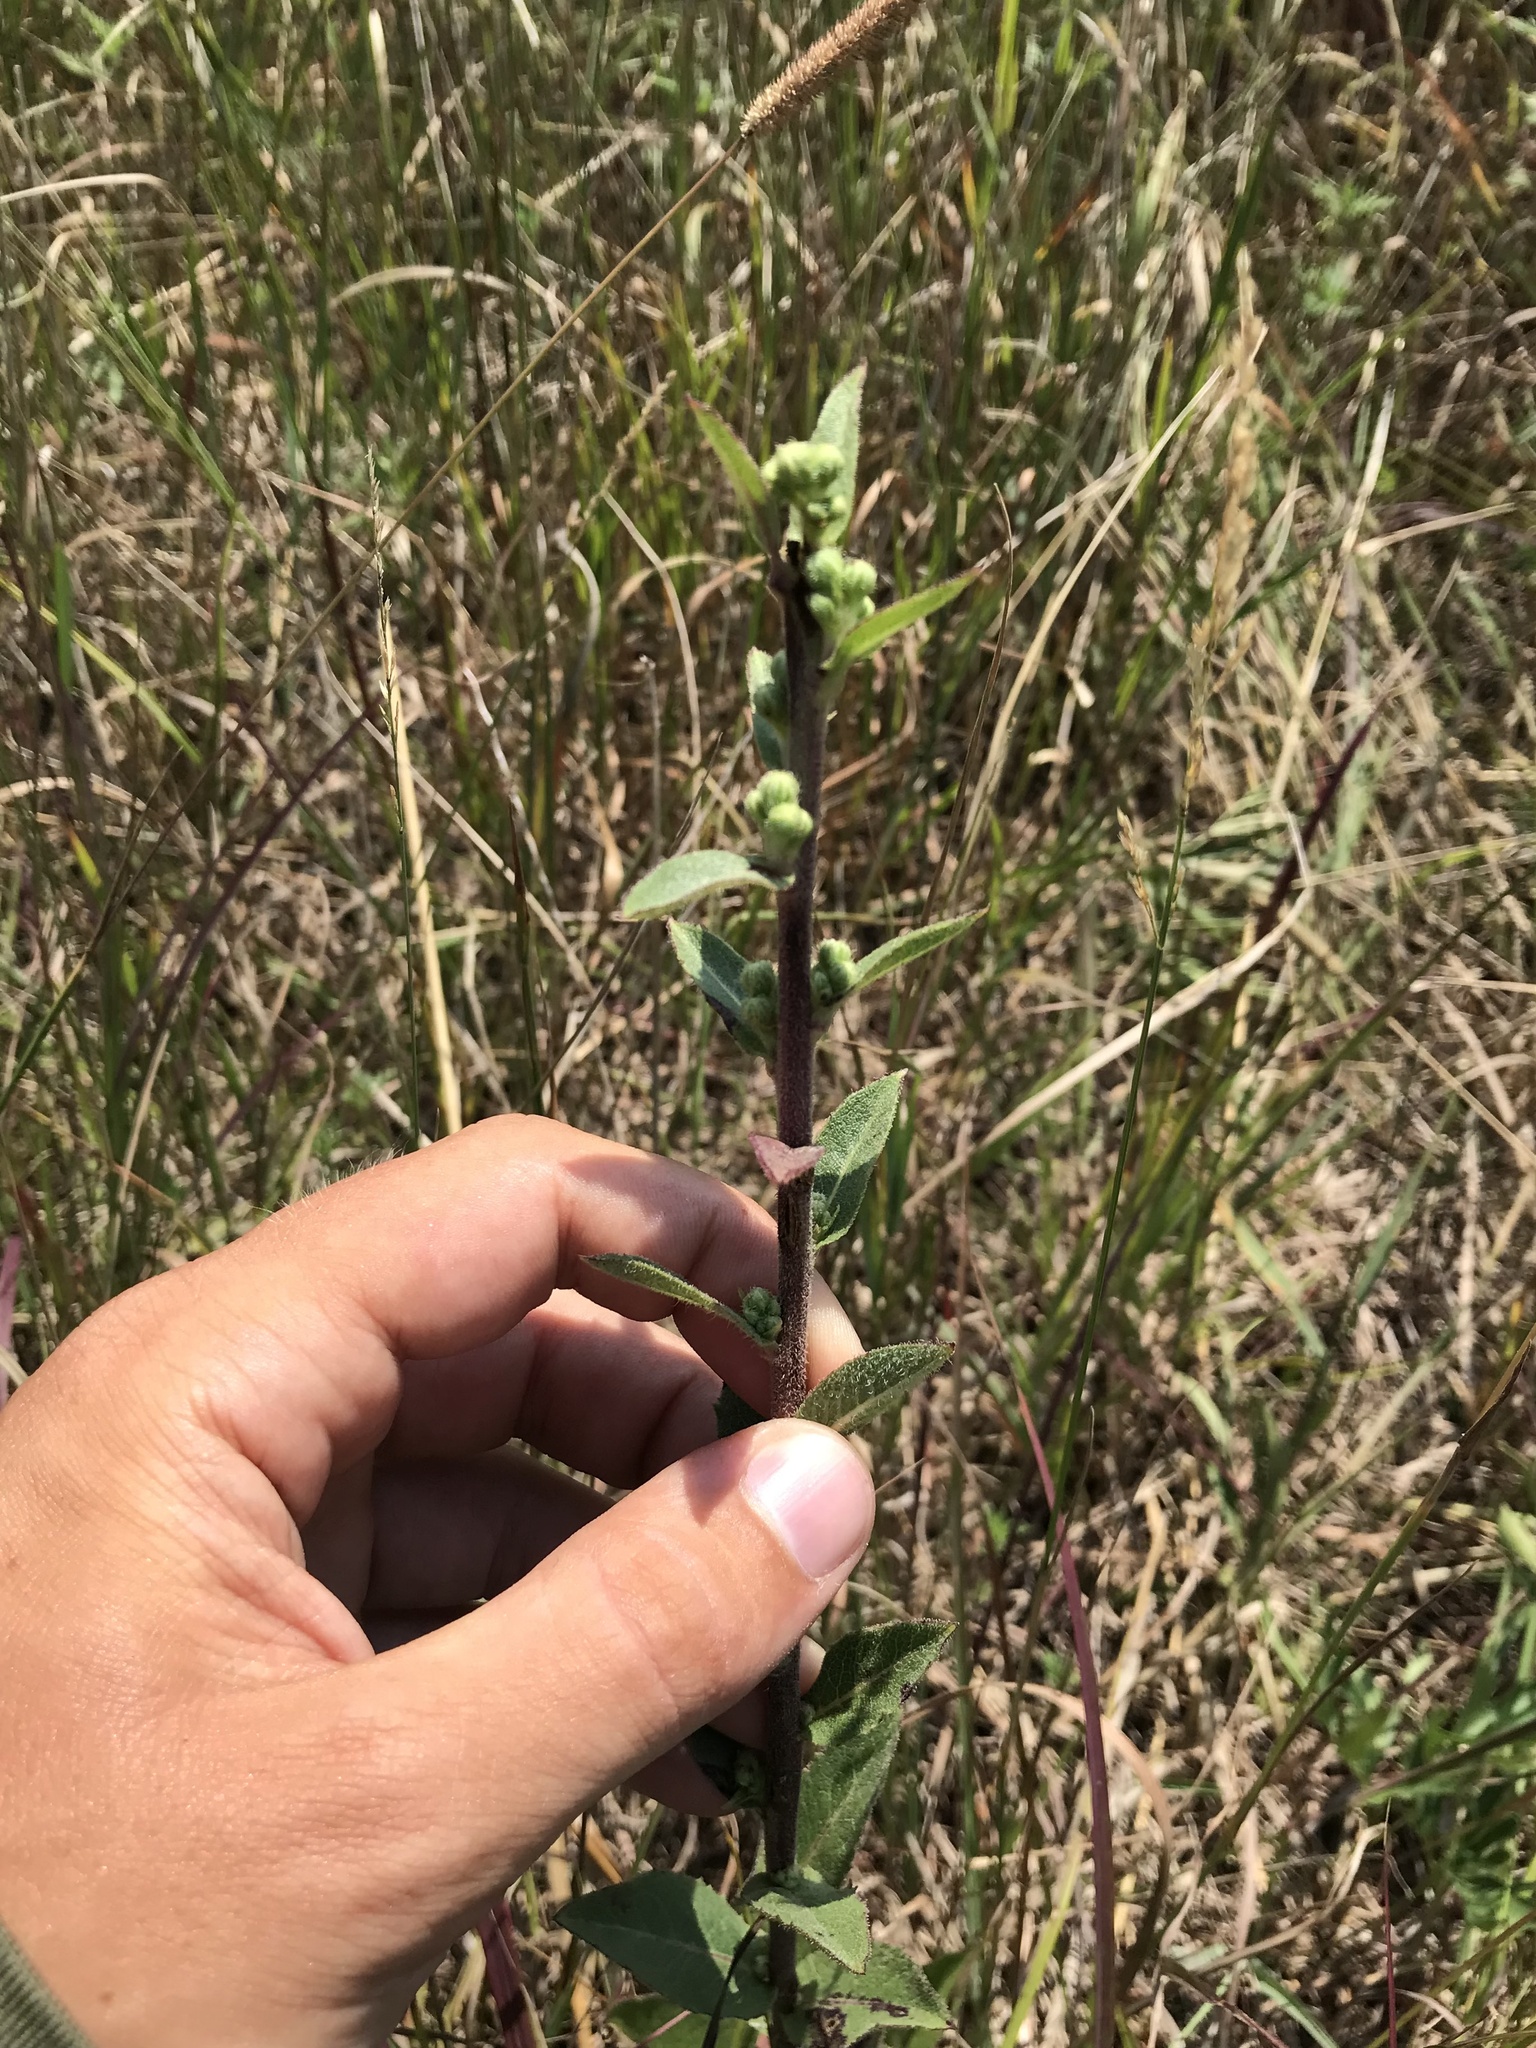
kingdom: Plantae
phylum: Tracheophyta
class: Magnoliopsida
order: Asterales
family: Asteraceae
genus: Nabalus
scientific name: Nabalus asper
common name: Rough rattlesnakeroot
